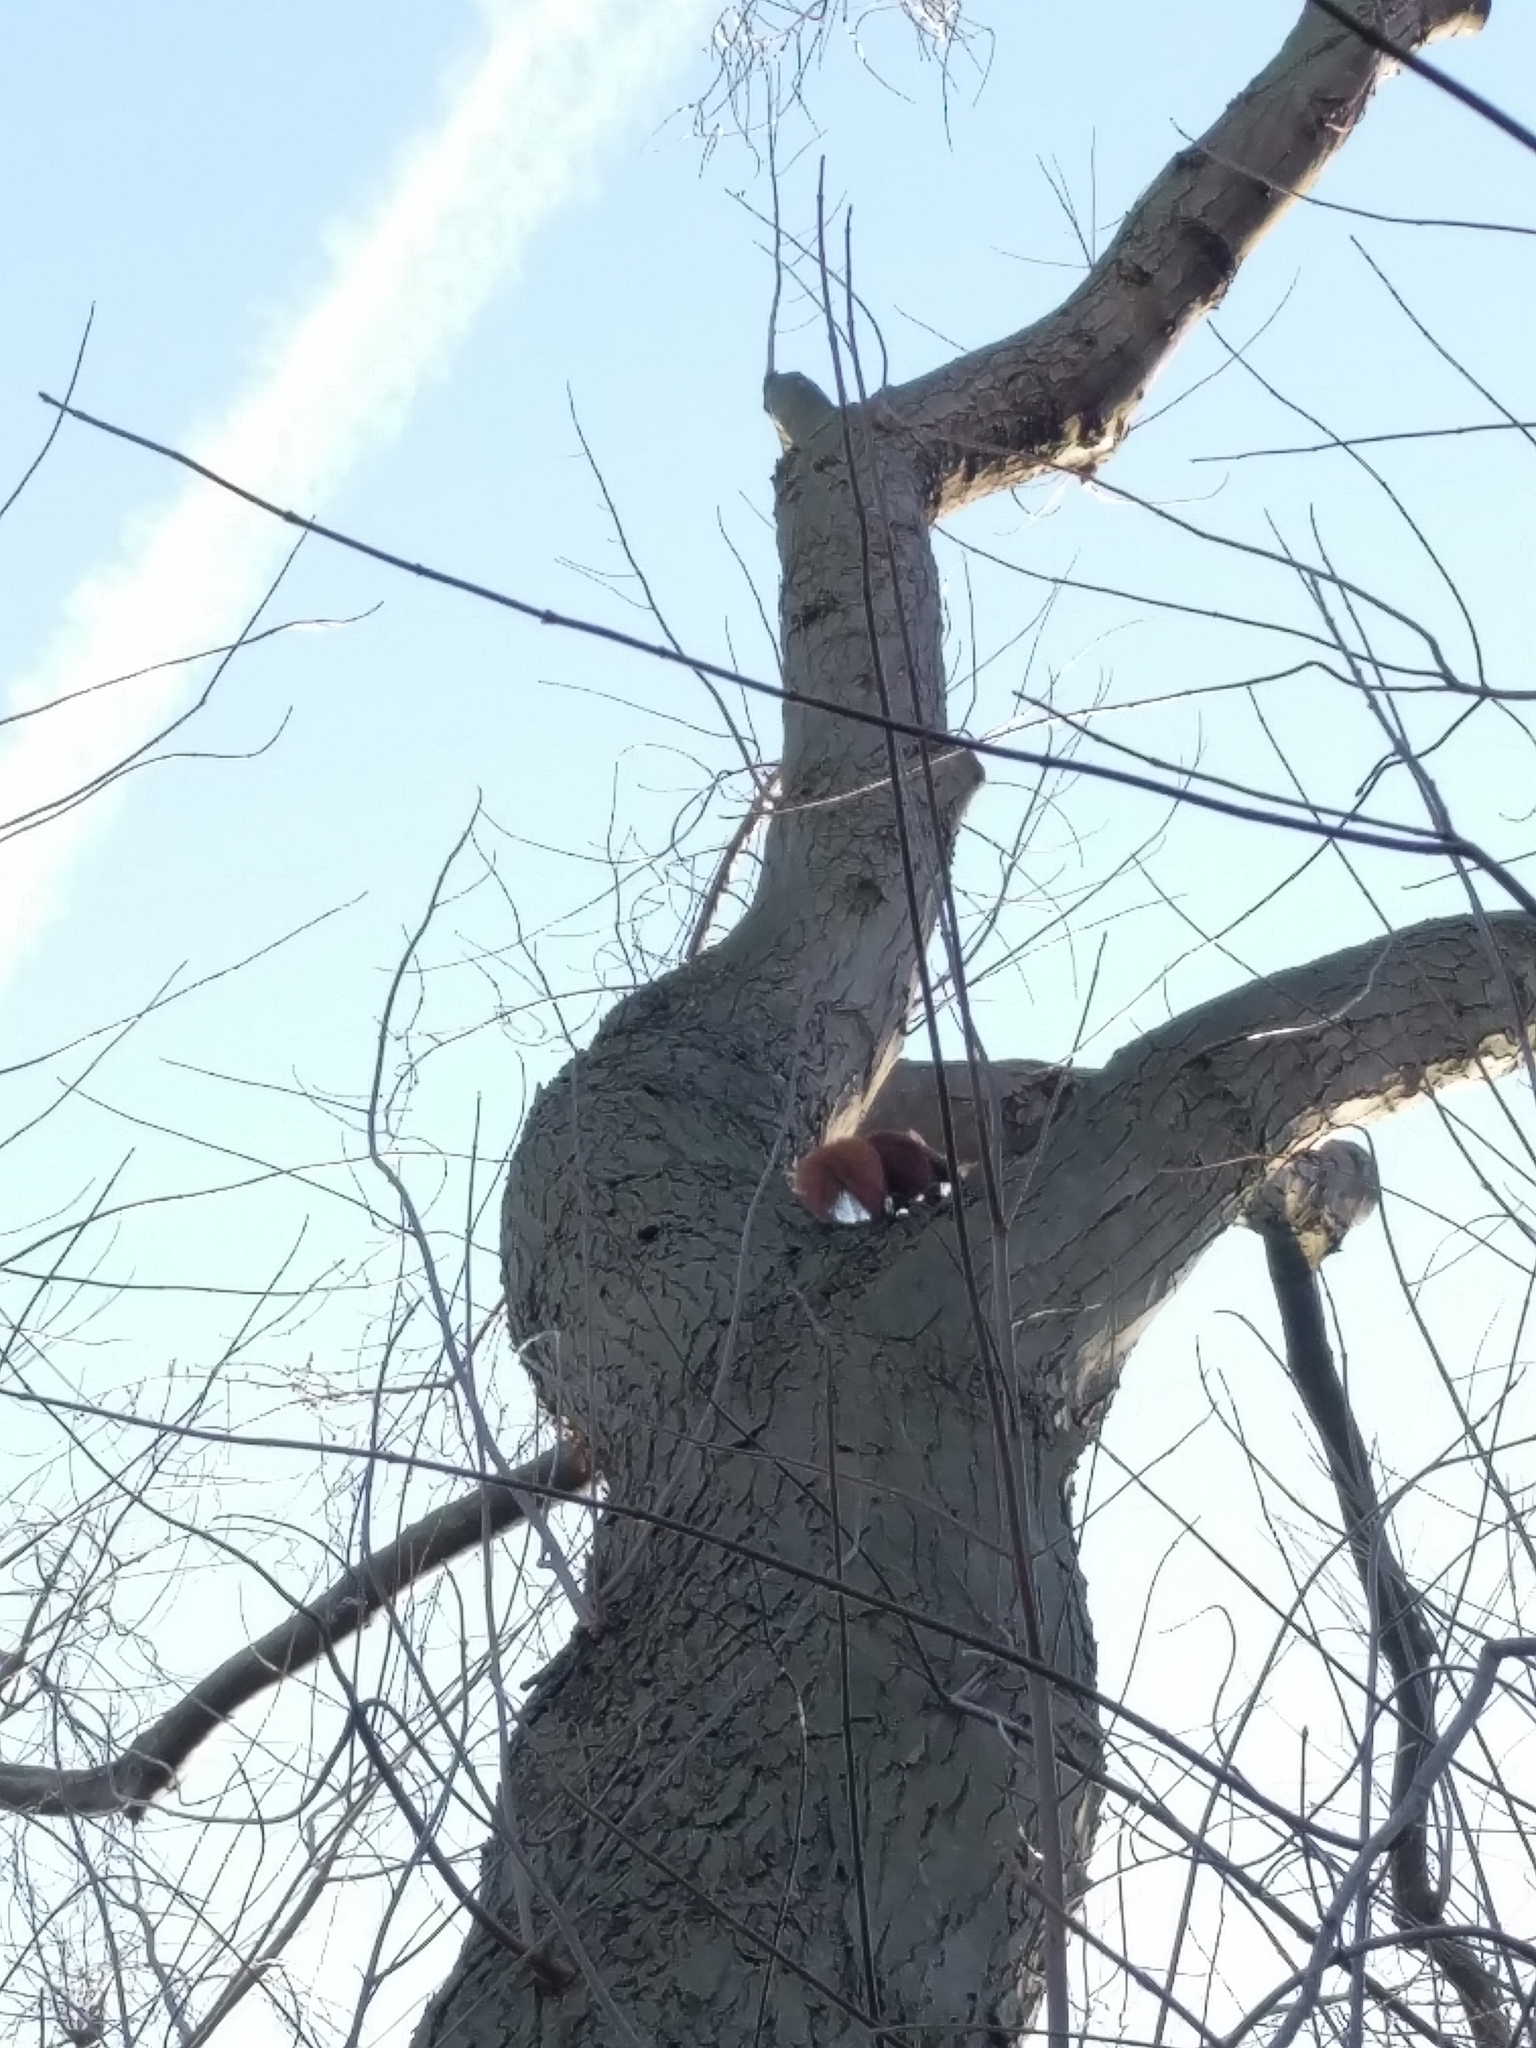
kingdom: Animalia
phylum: Chordata
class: Mammalia
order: Rodentia
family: Sciuridae
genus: Sciurus
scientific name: Sciurus vulgaris
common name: Eurasian red squirrel
